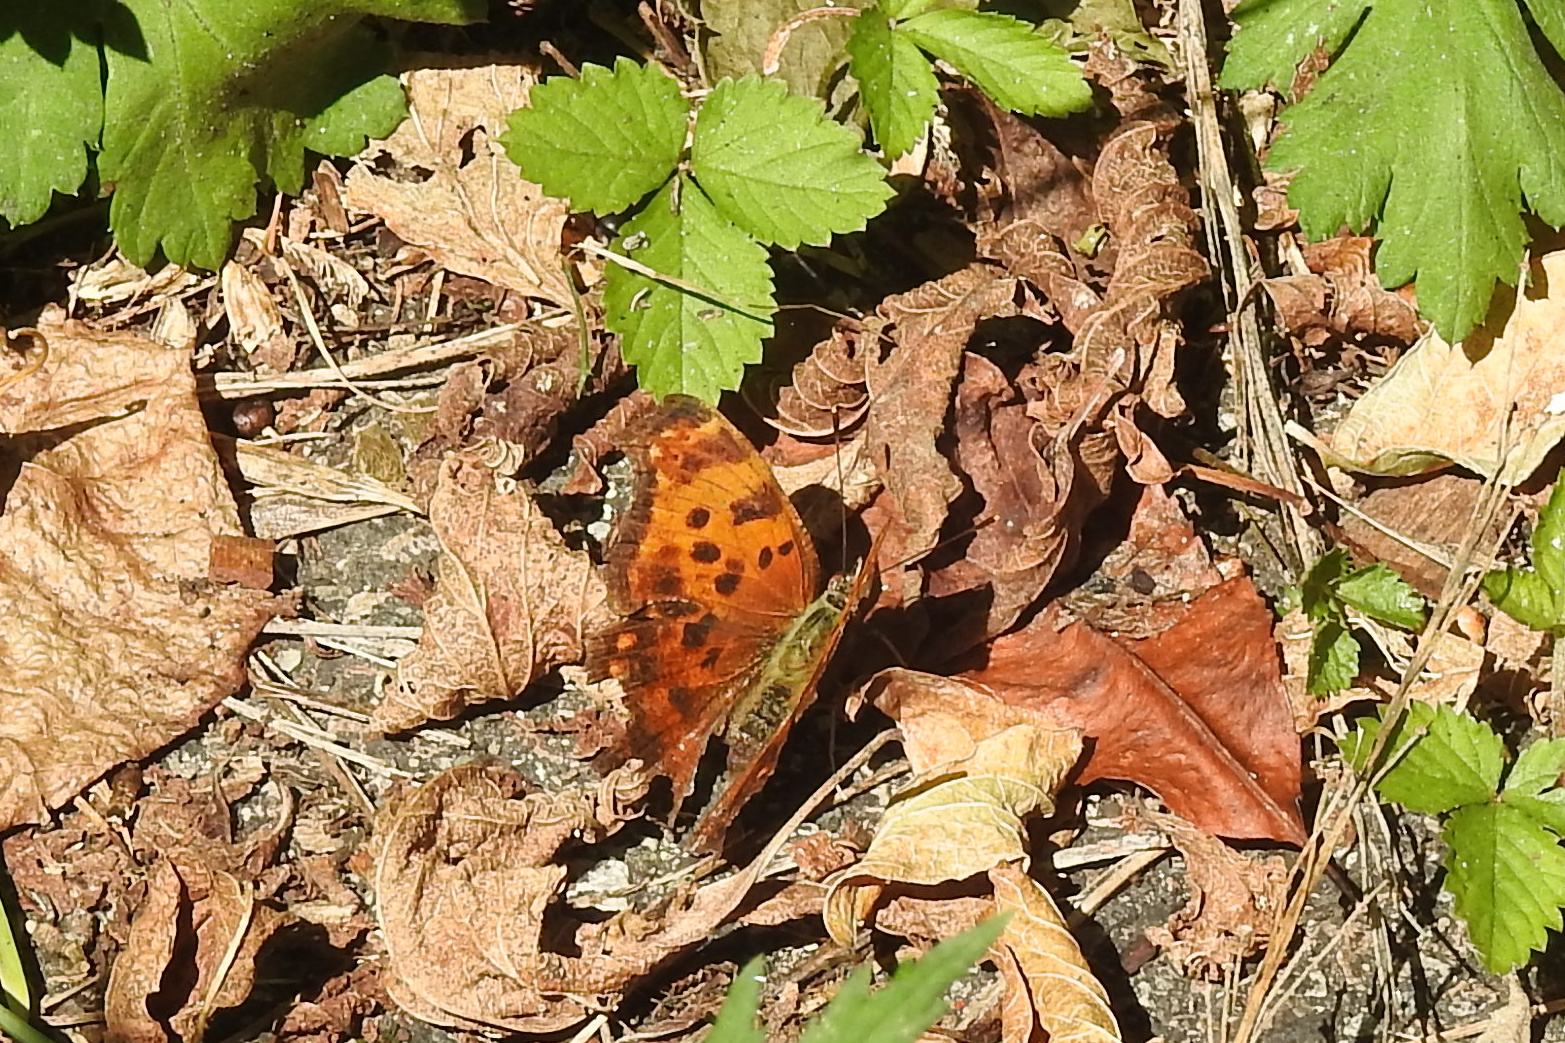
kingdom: Animalia
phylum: Arthropoda
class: Insecta
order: Lepidoptera
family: Nymphalidae
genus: Polygonia
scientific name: Polygonia comma
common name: Eastern comma
